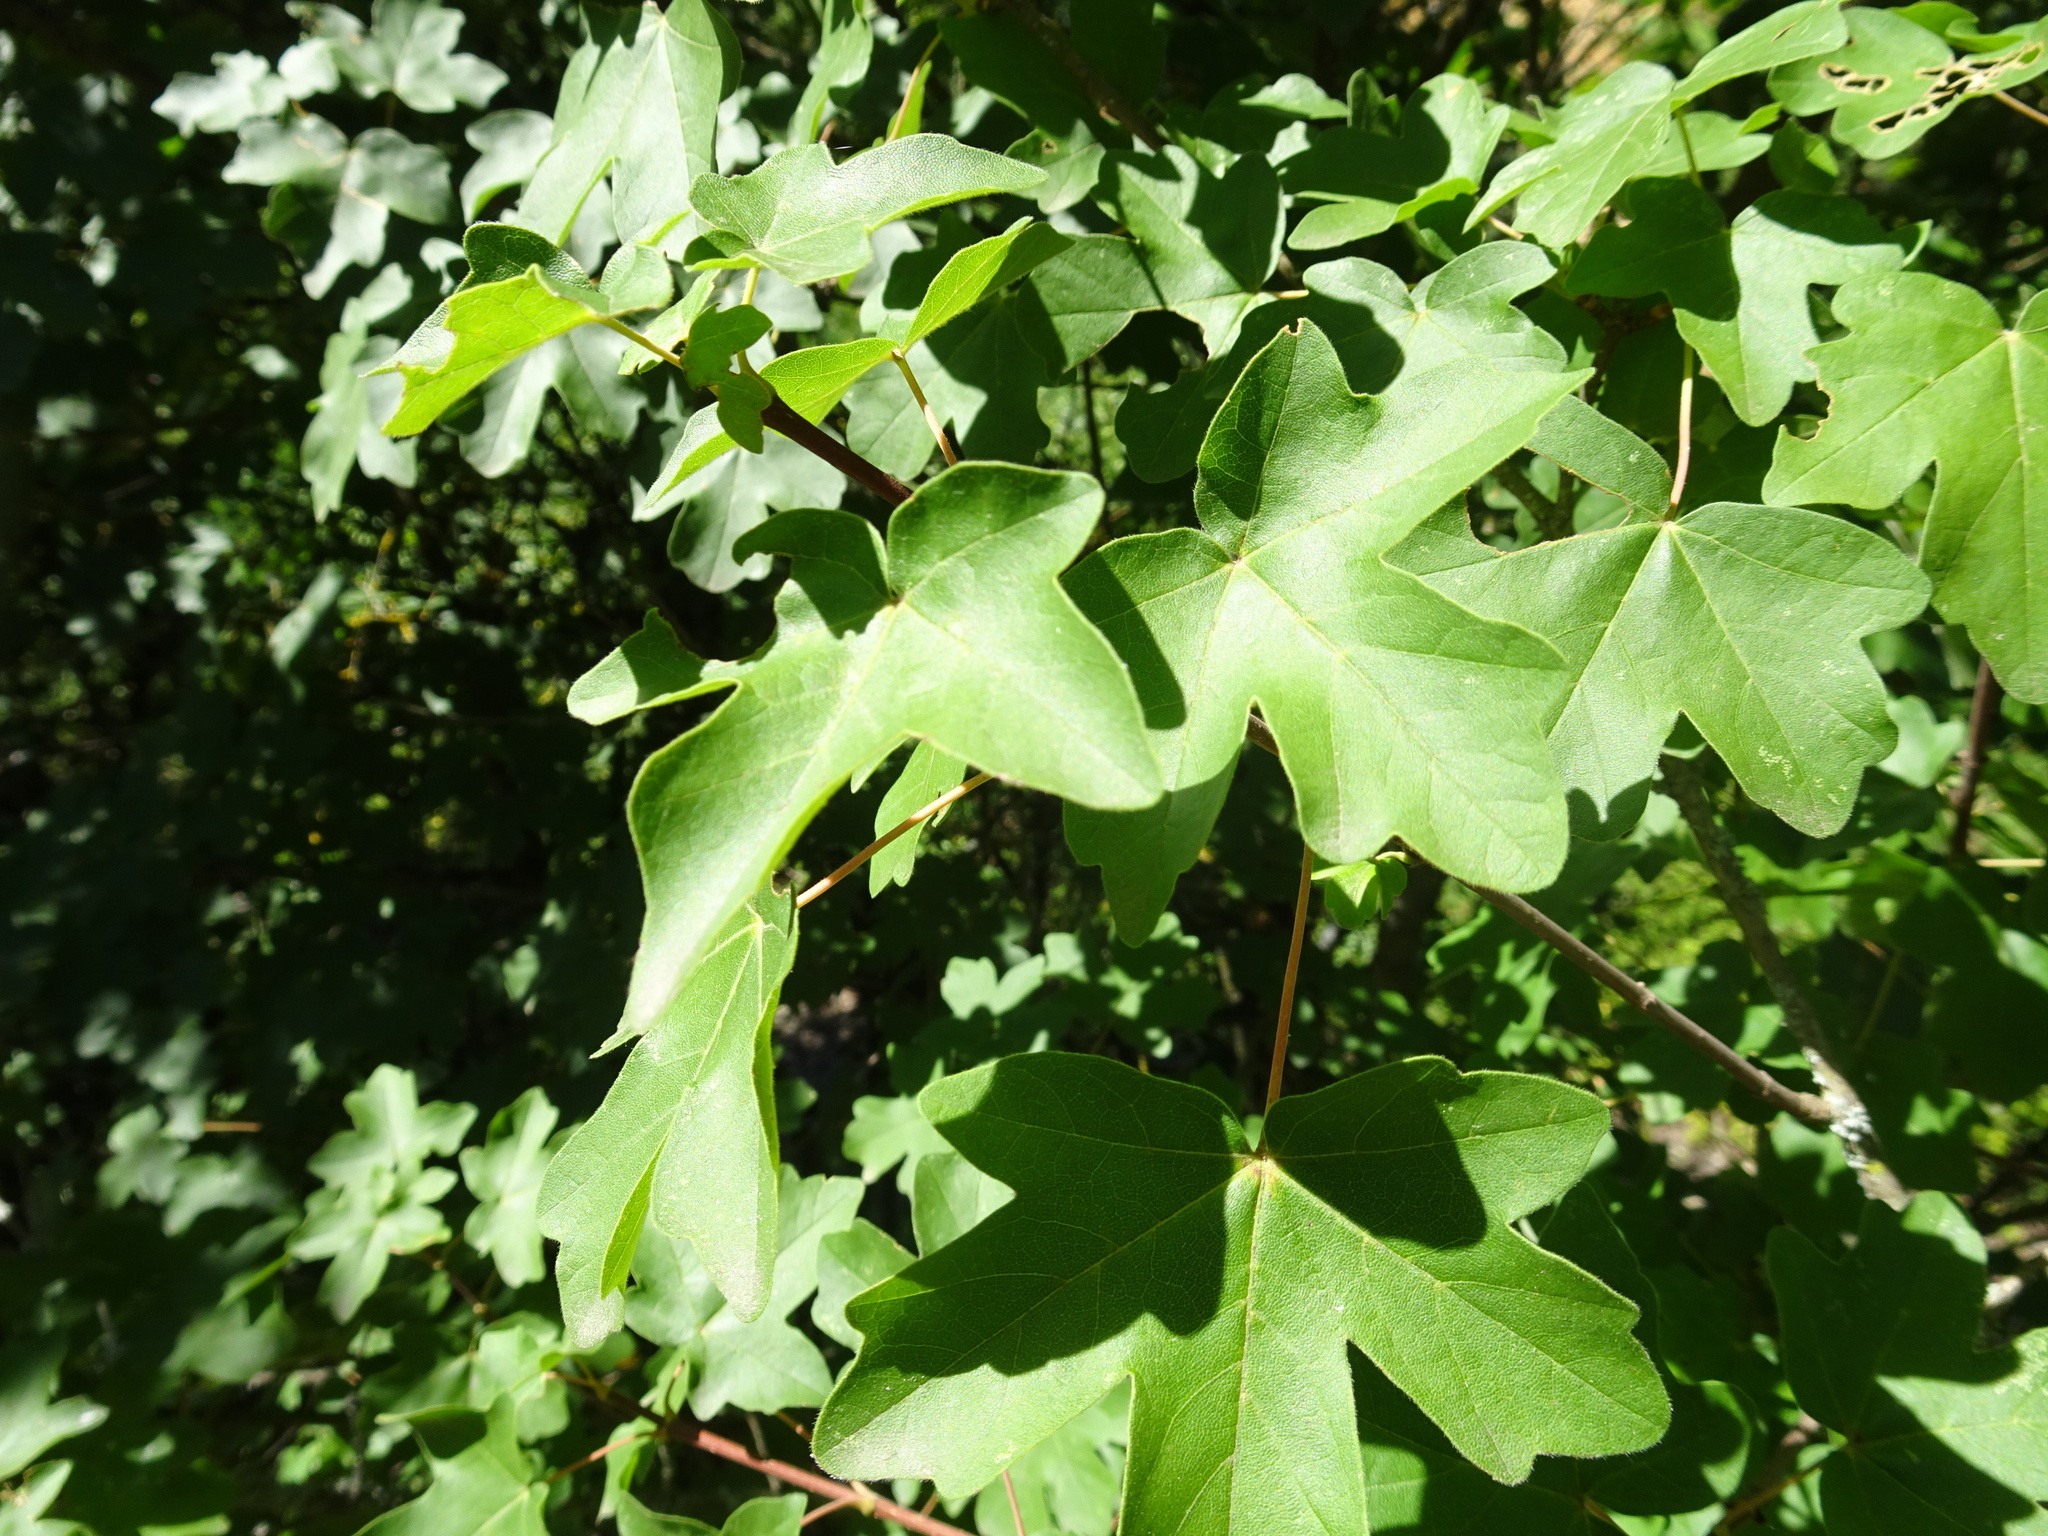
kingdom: Plantae
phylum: Tracheophyta
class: Magnoliopsida
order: Sapindales
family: Sapindaceae
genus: Acer
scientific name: Acer campestre
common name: Field maple
